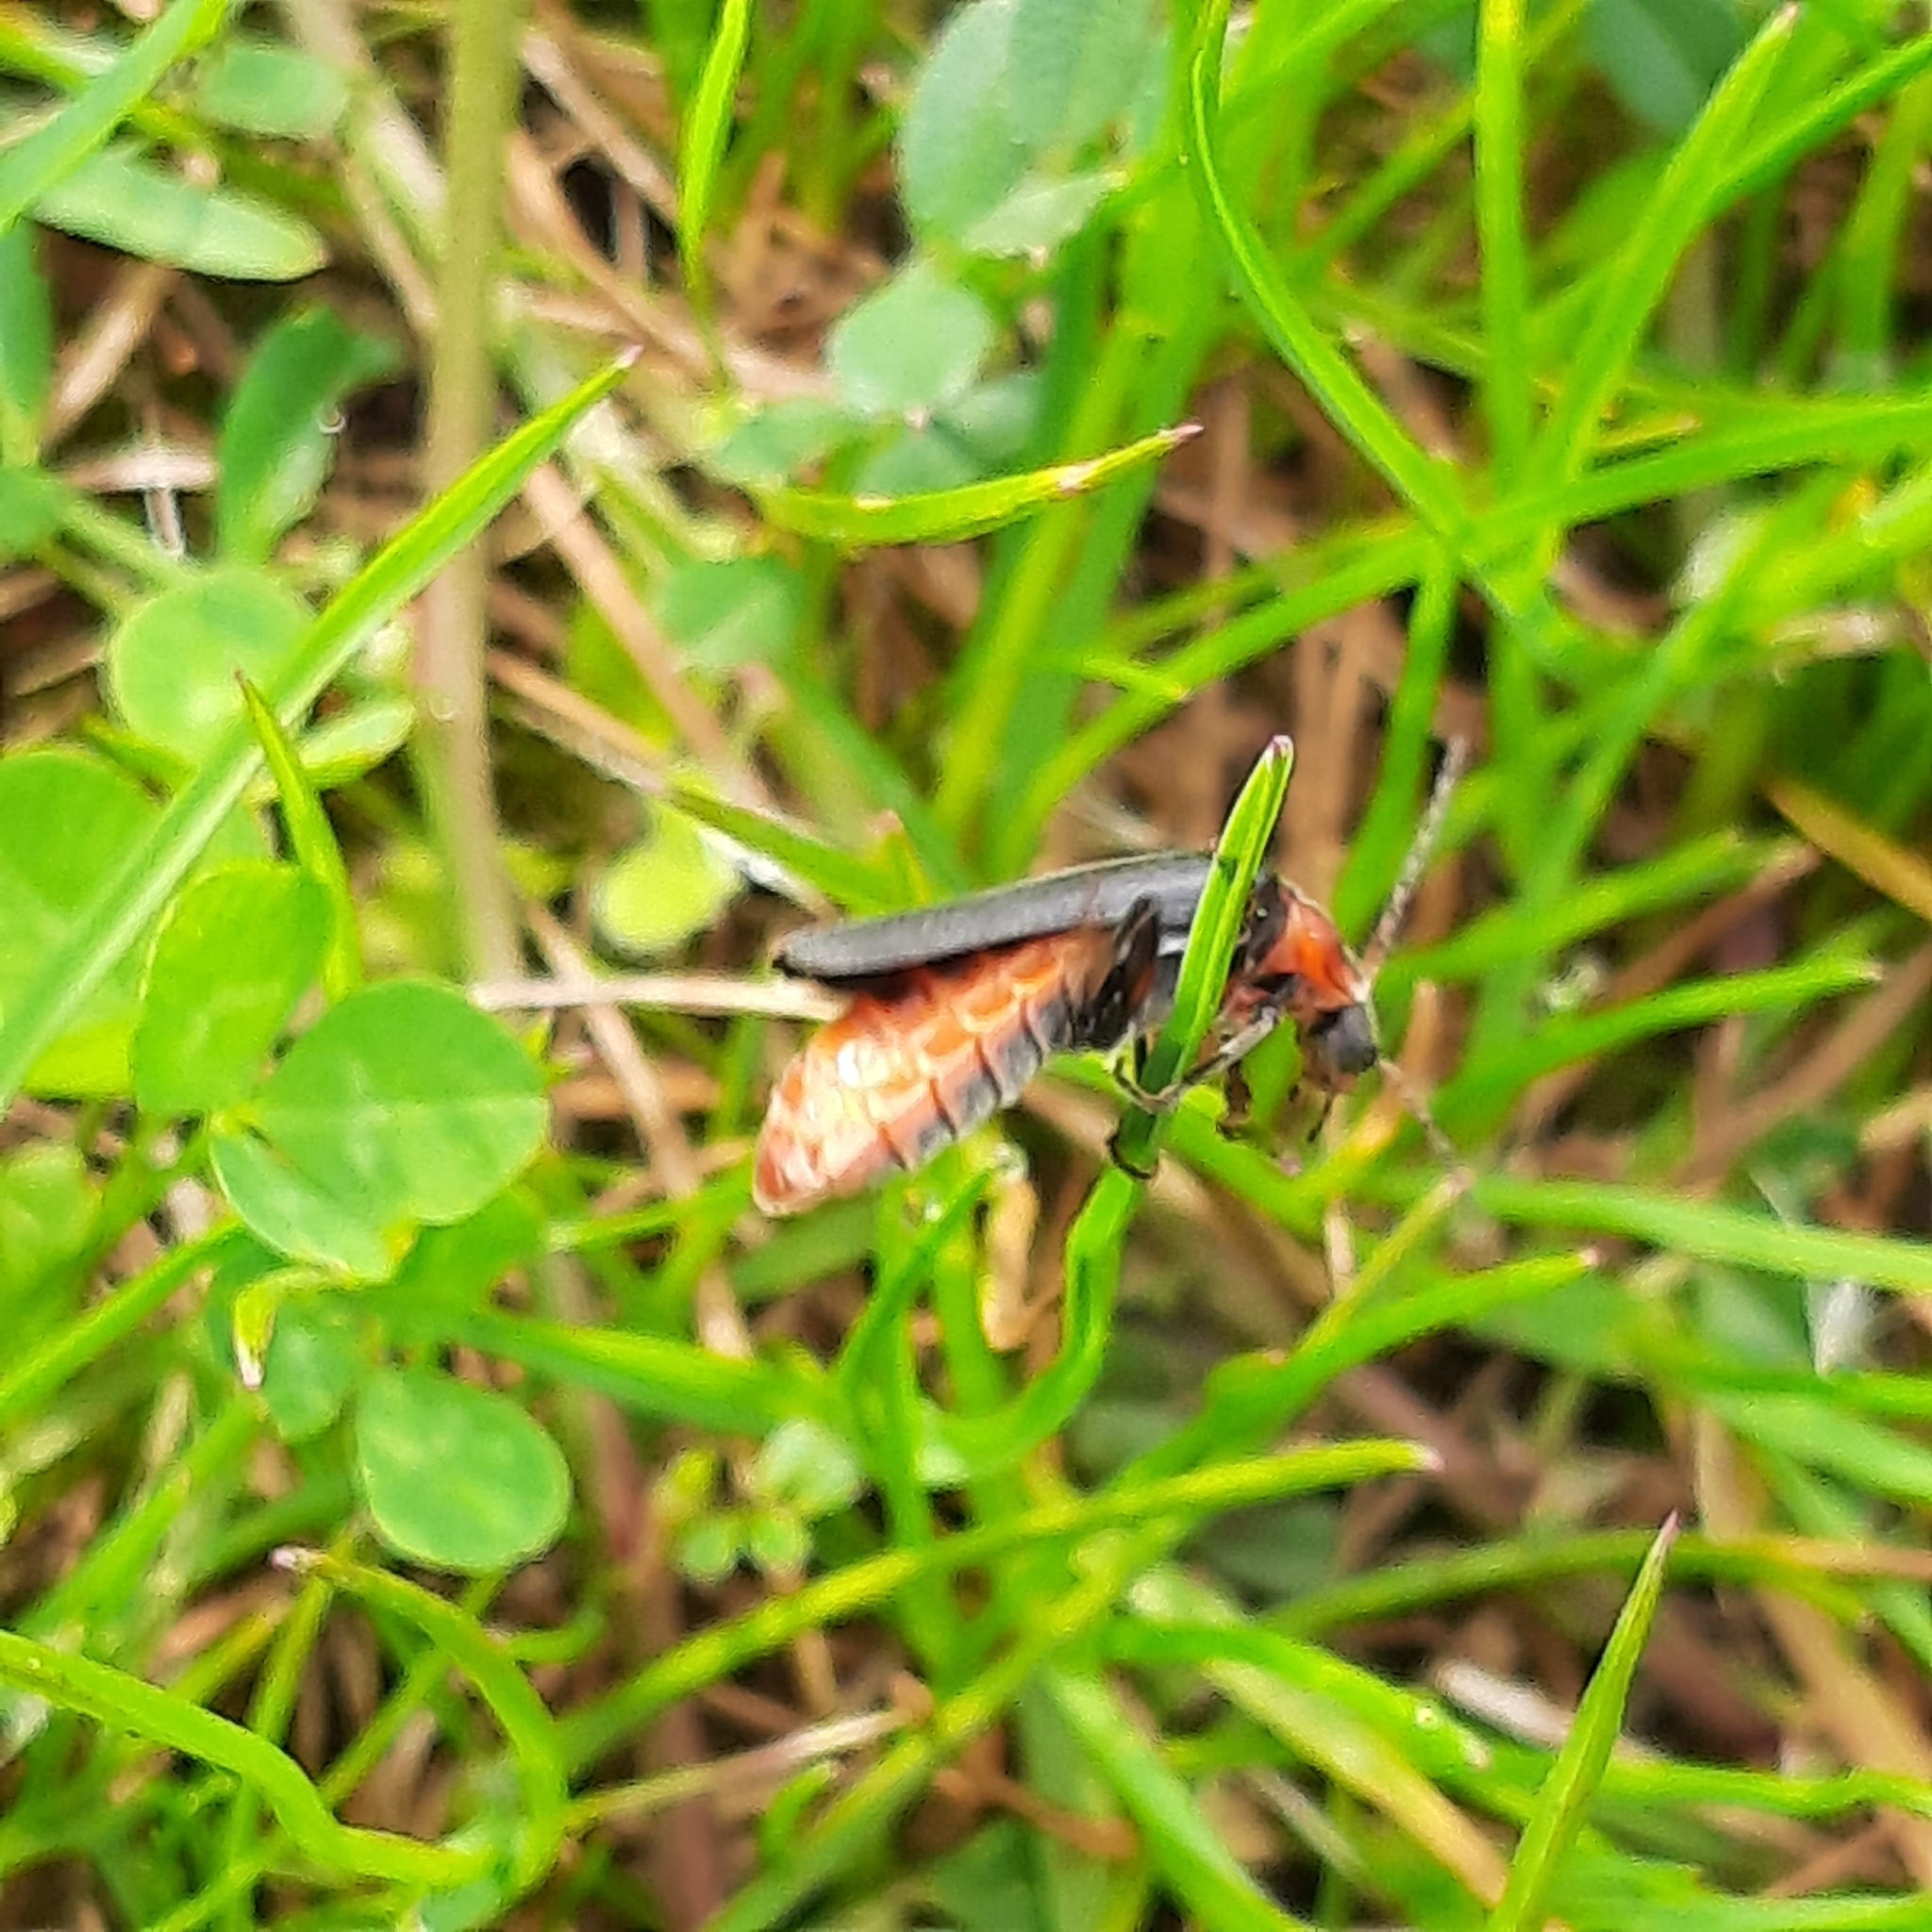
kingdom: Animalia
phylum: Arthropoda
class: Insecta
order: Coleoptera
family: Cantharidae
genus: Cantharis
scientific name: Cantharis rustica
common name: Soldier beetle
